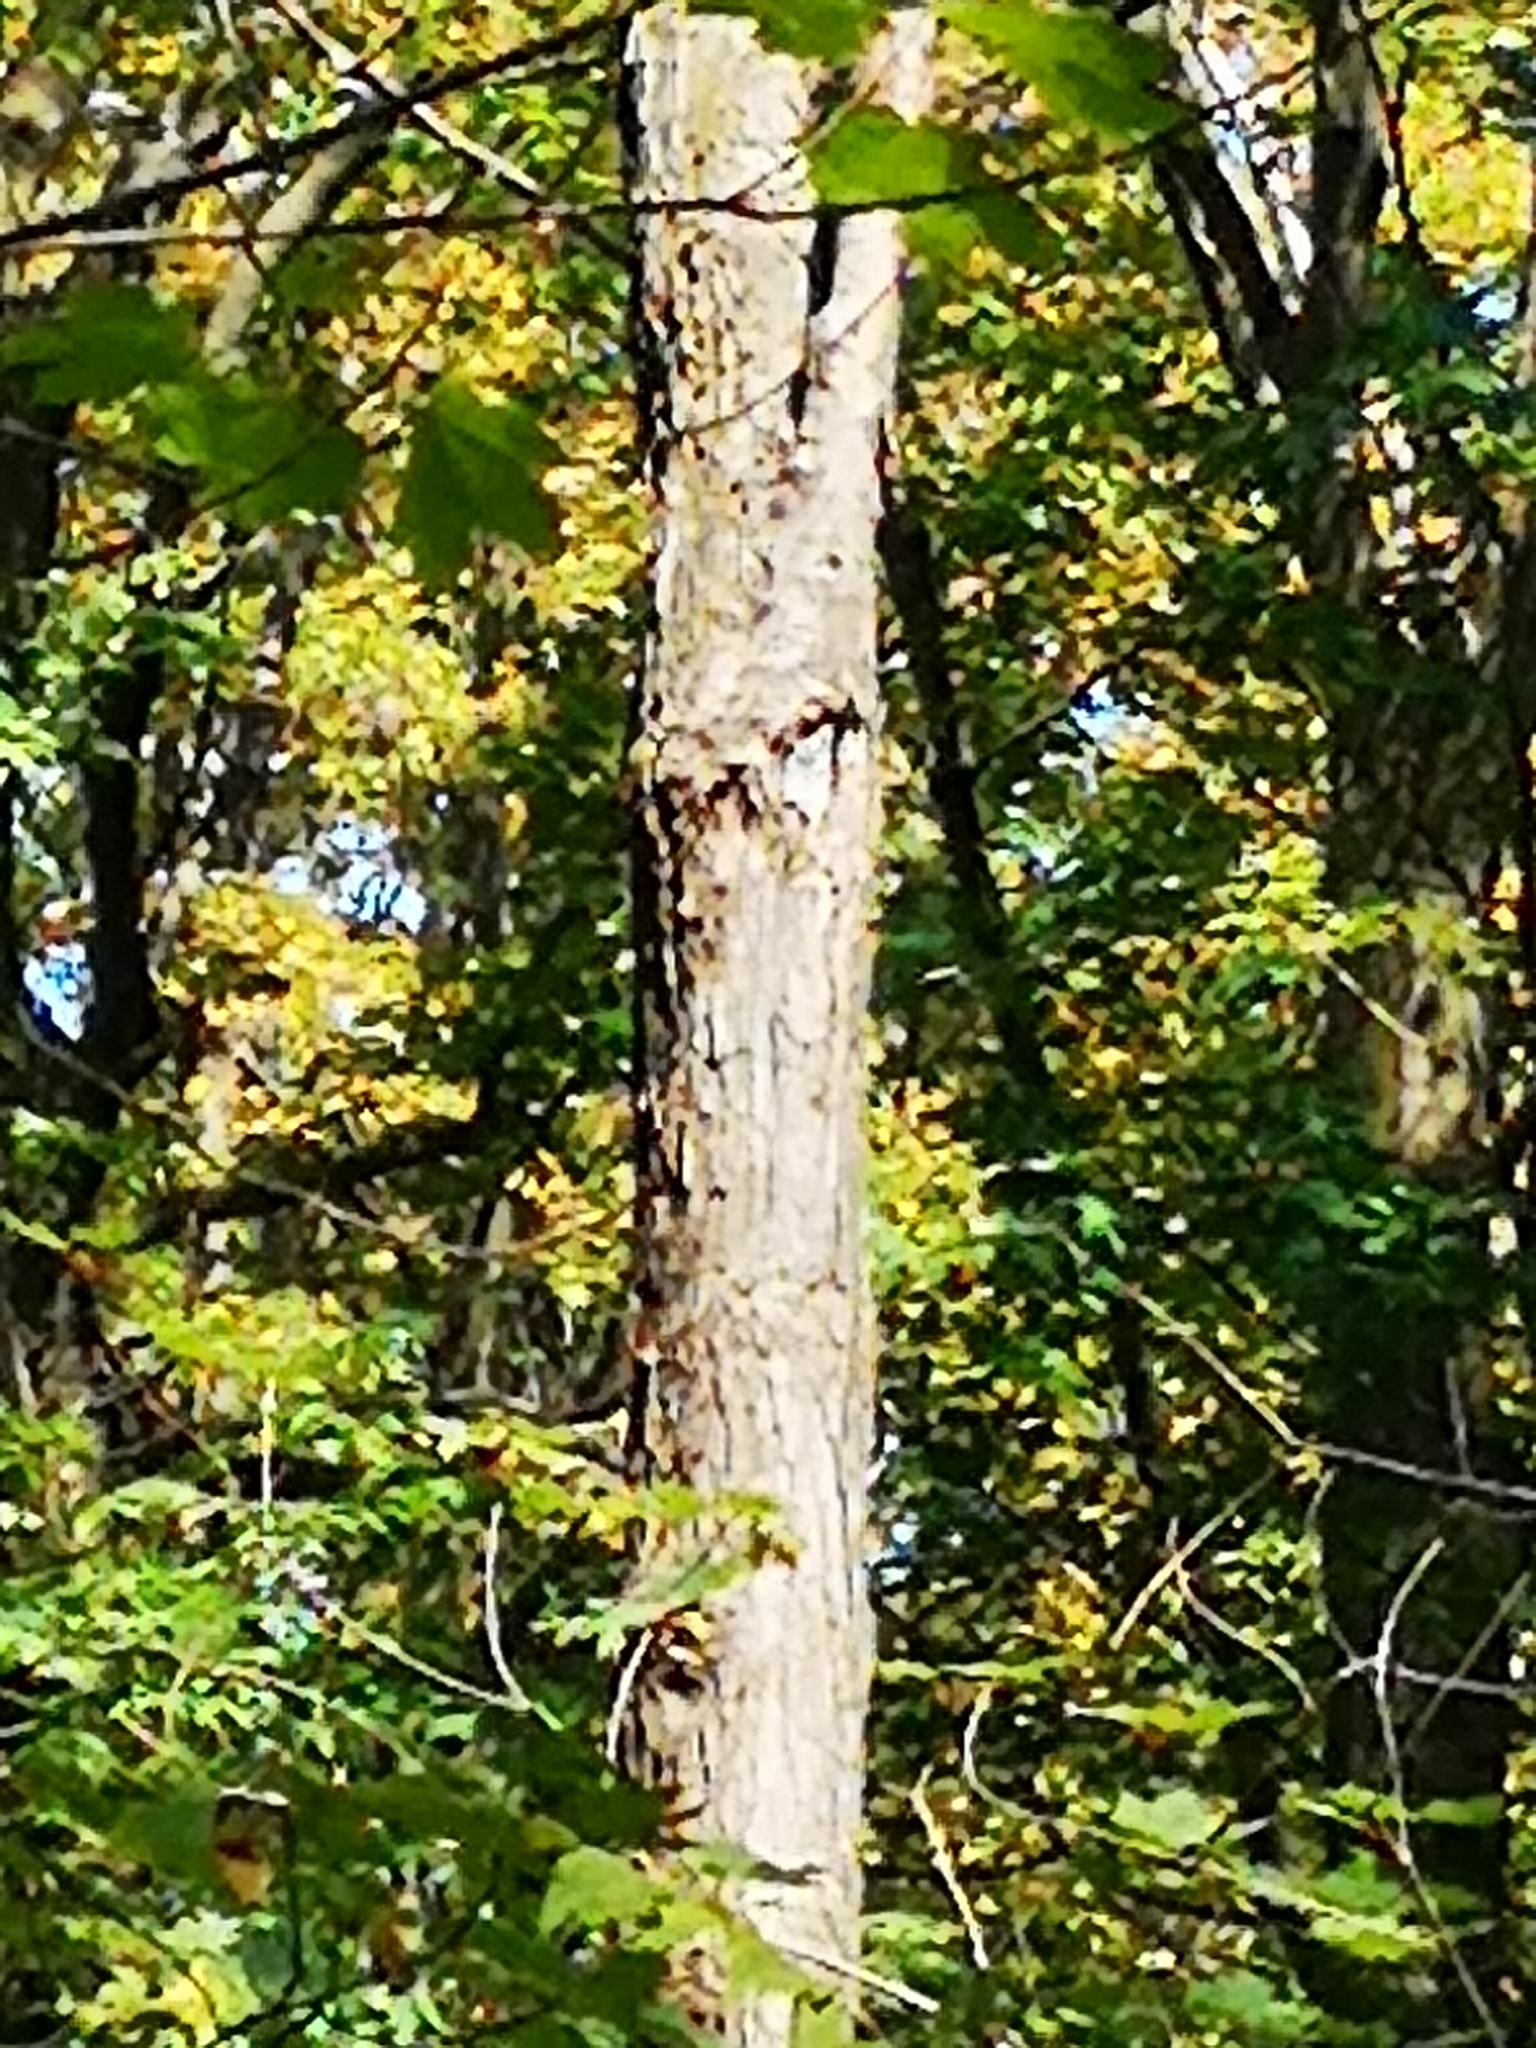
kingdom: Animalia
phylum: Chordata
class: Aves
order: Strigiformes
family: Strigidae
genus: Megascops
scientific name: Megascops asio
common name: Eastern screech-owl
